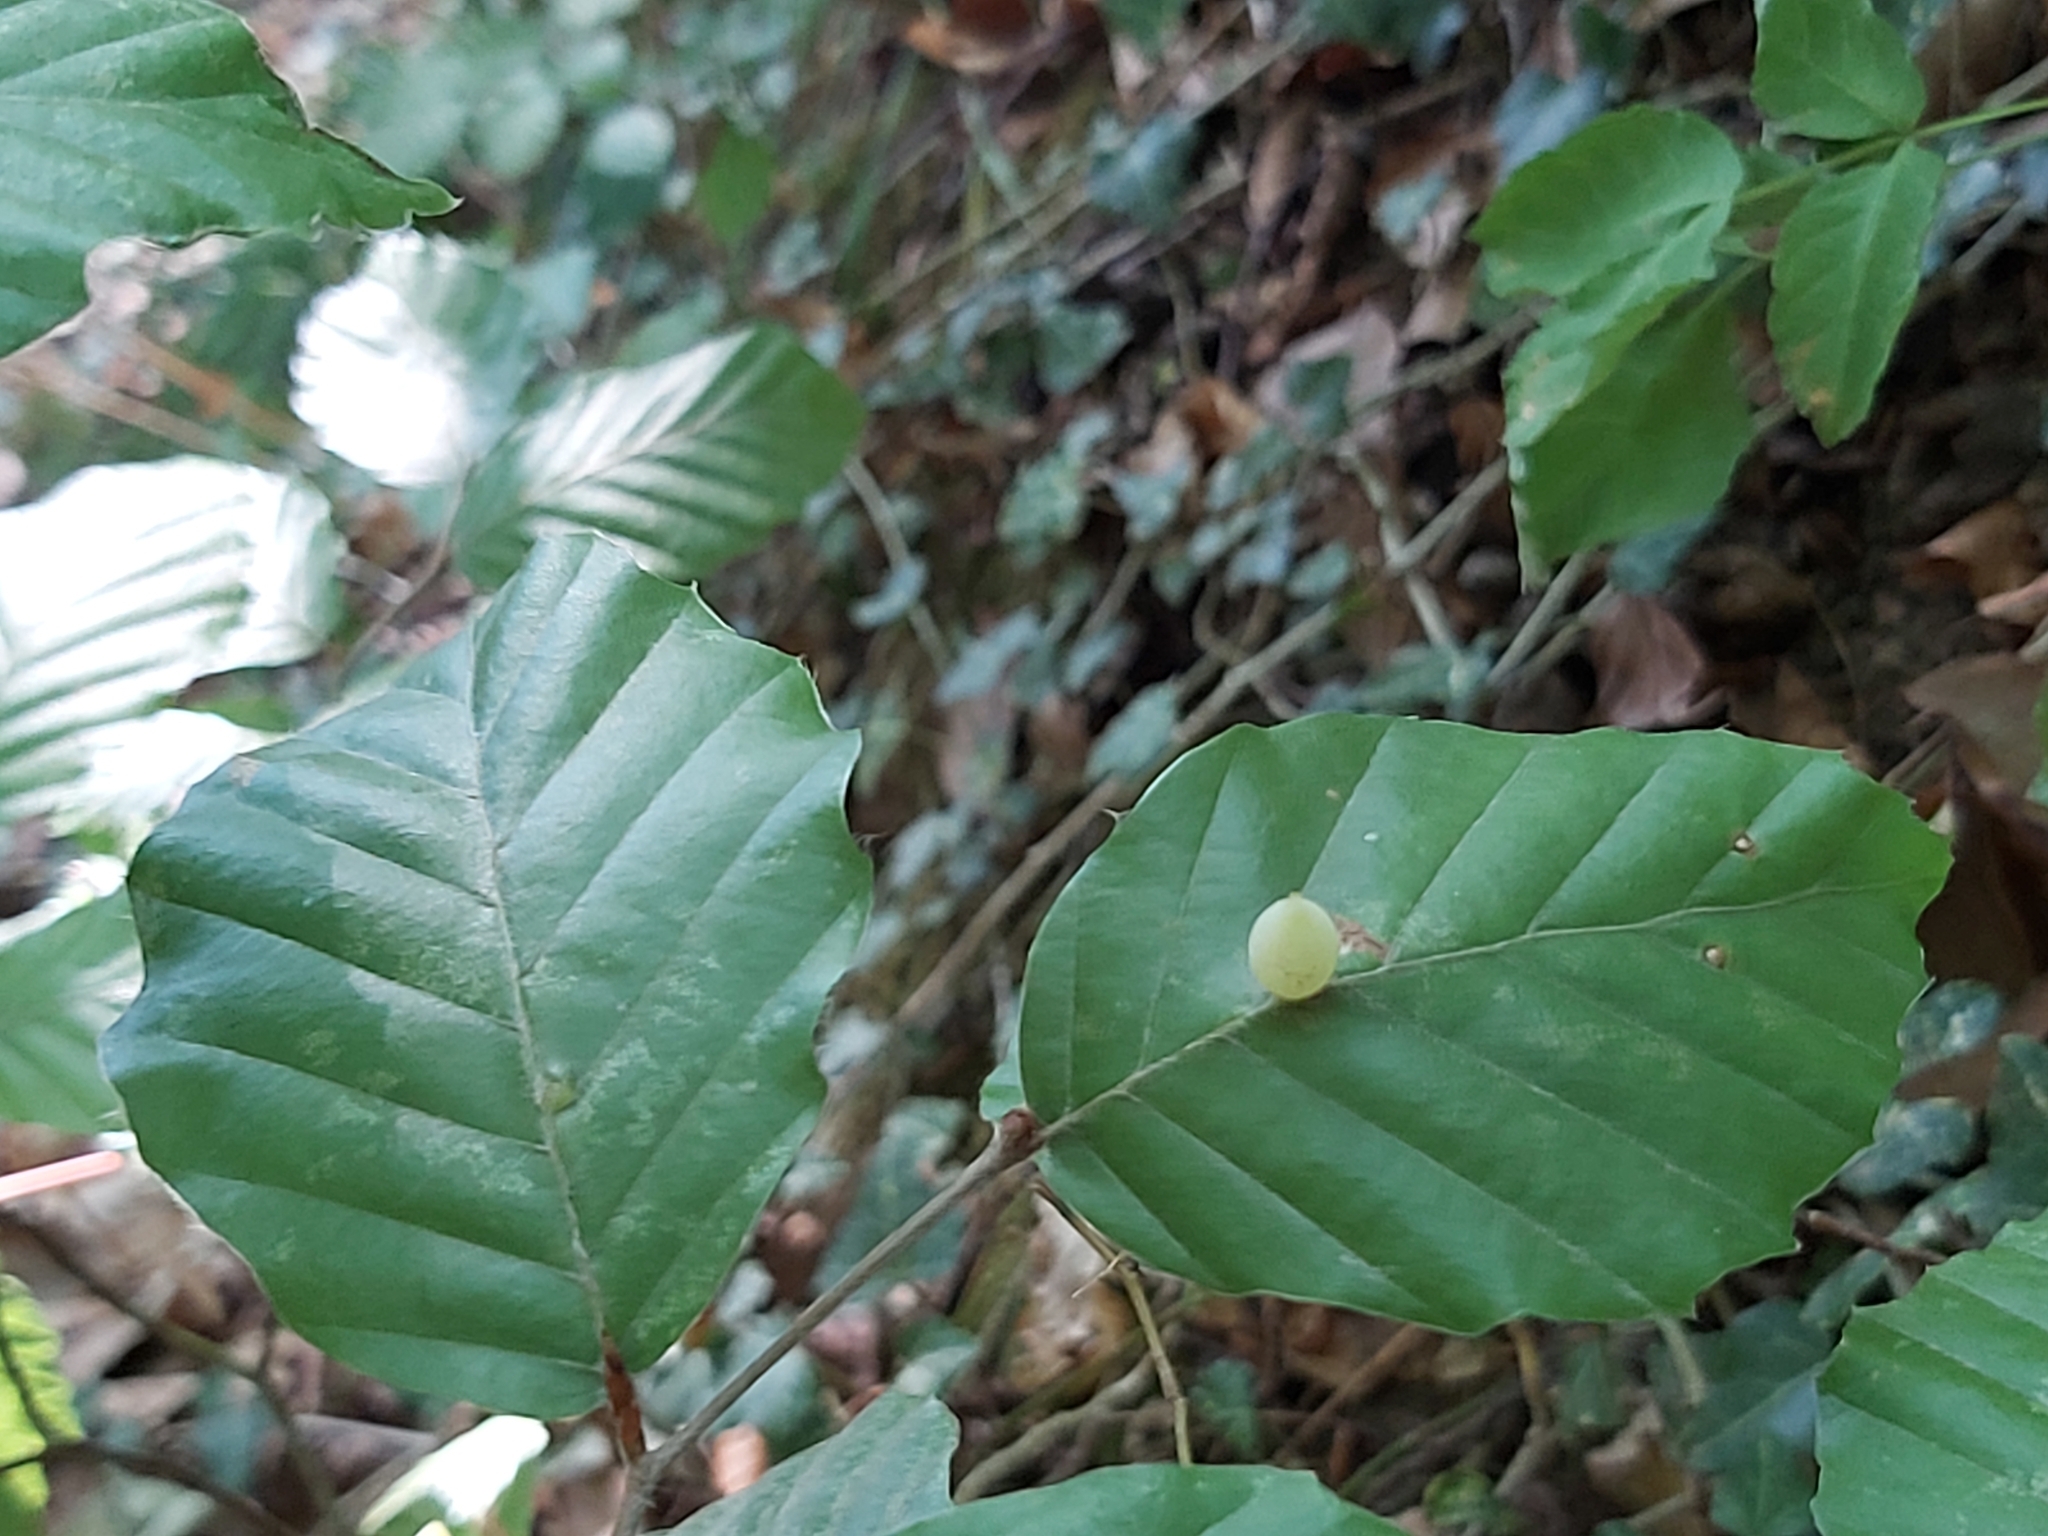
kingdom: Animalia
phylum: Arthropoda
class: Insecta
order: Diptera
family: Cecidomyiidae
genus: Mikiola
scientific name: Mikiola fagi
